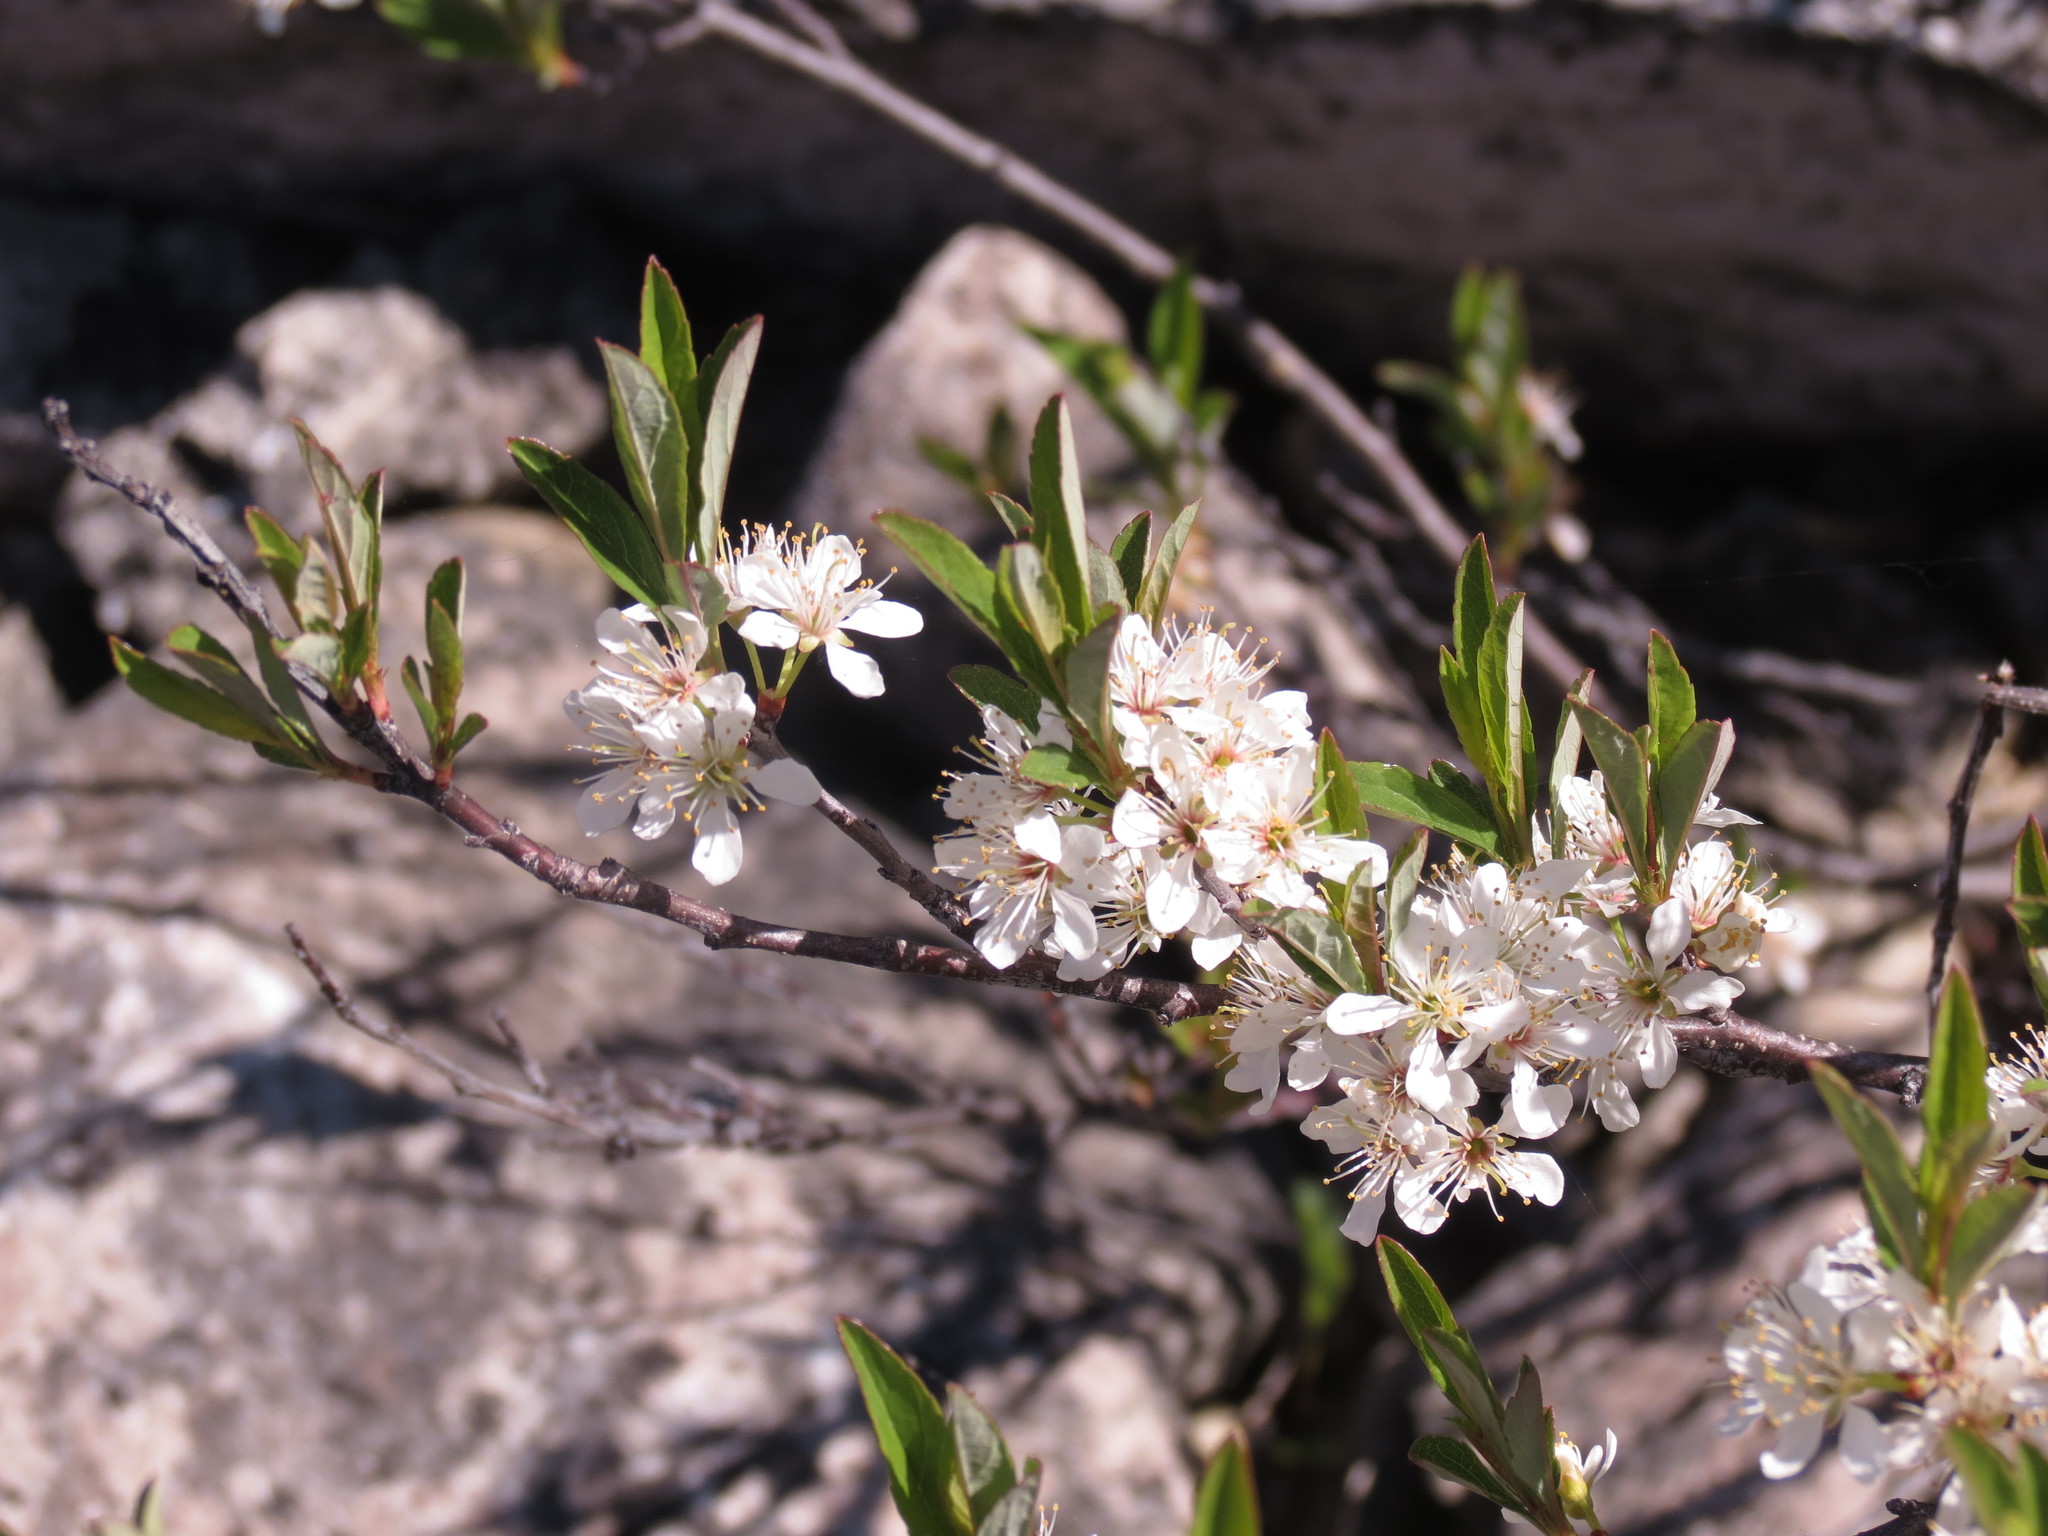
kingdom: Plantae
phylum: Tracheophyta
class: Magnoliopsida
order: Rosales
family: Rosaceae
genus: Prunus
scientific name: Prunus pumila
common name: Dwarf cherry
